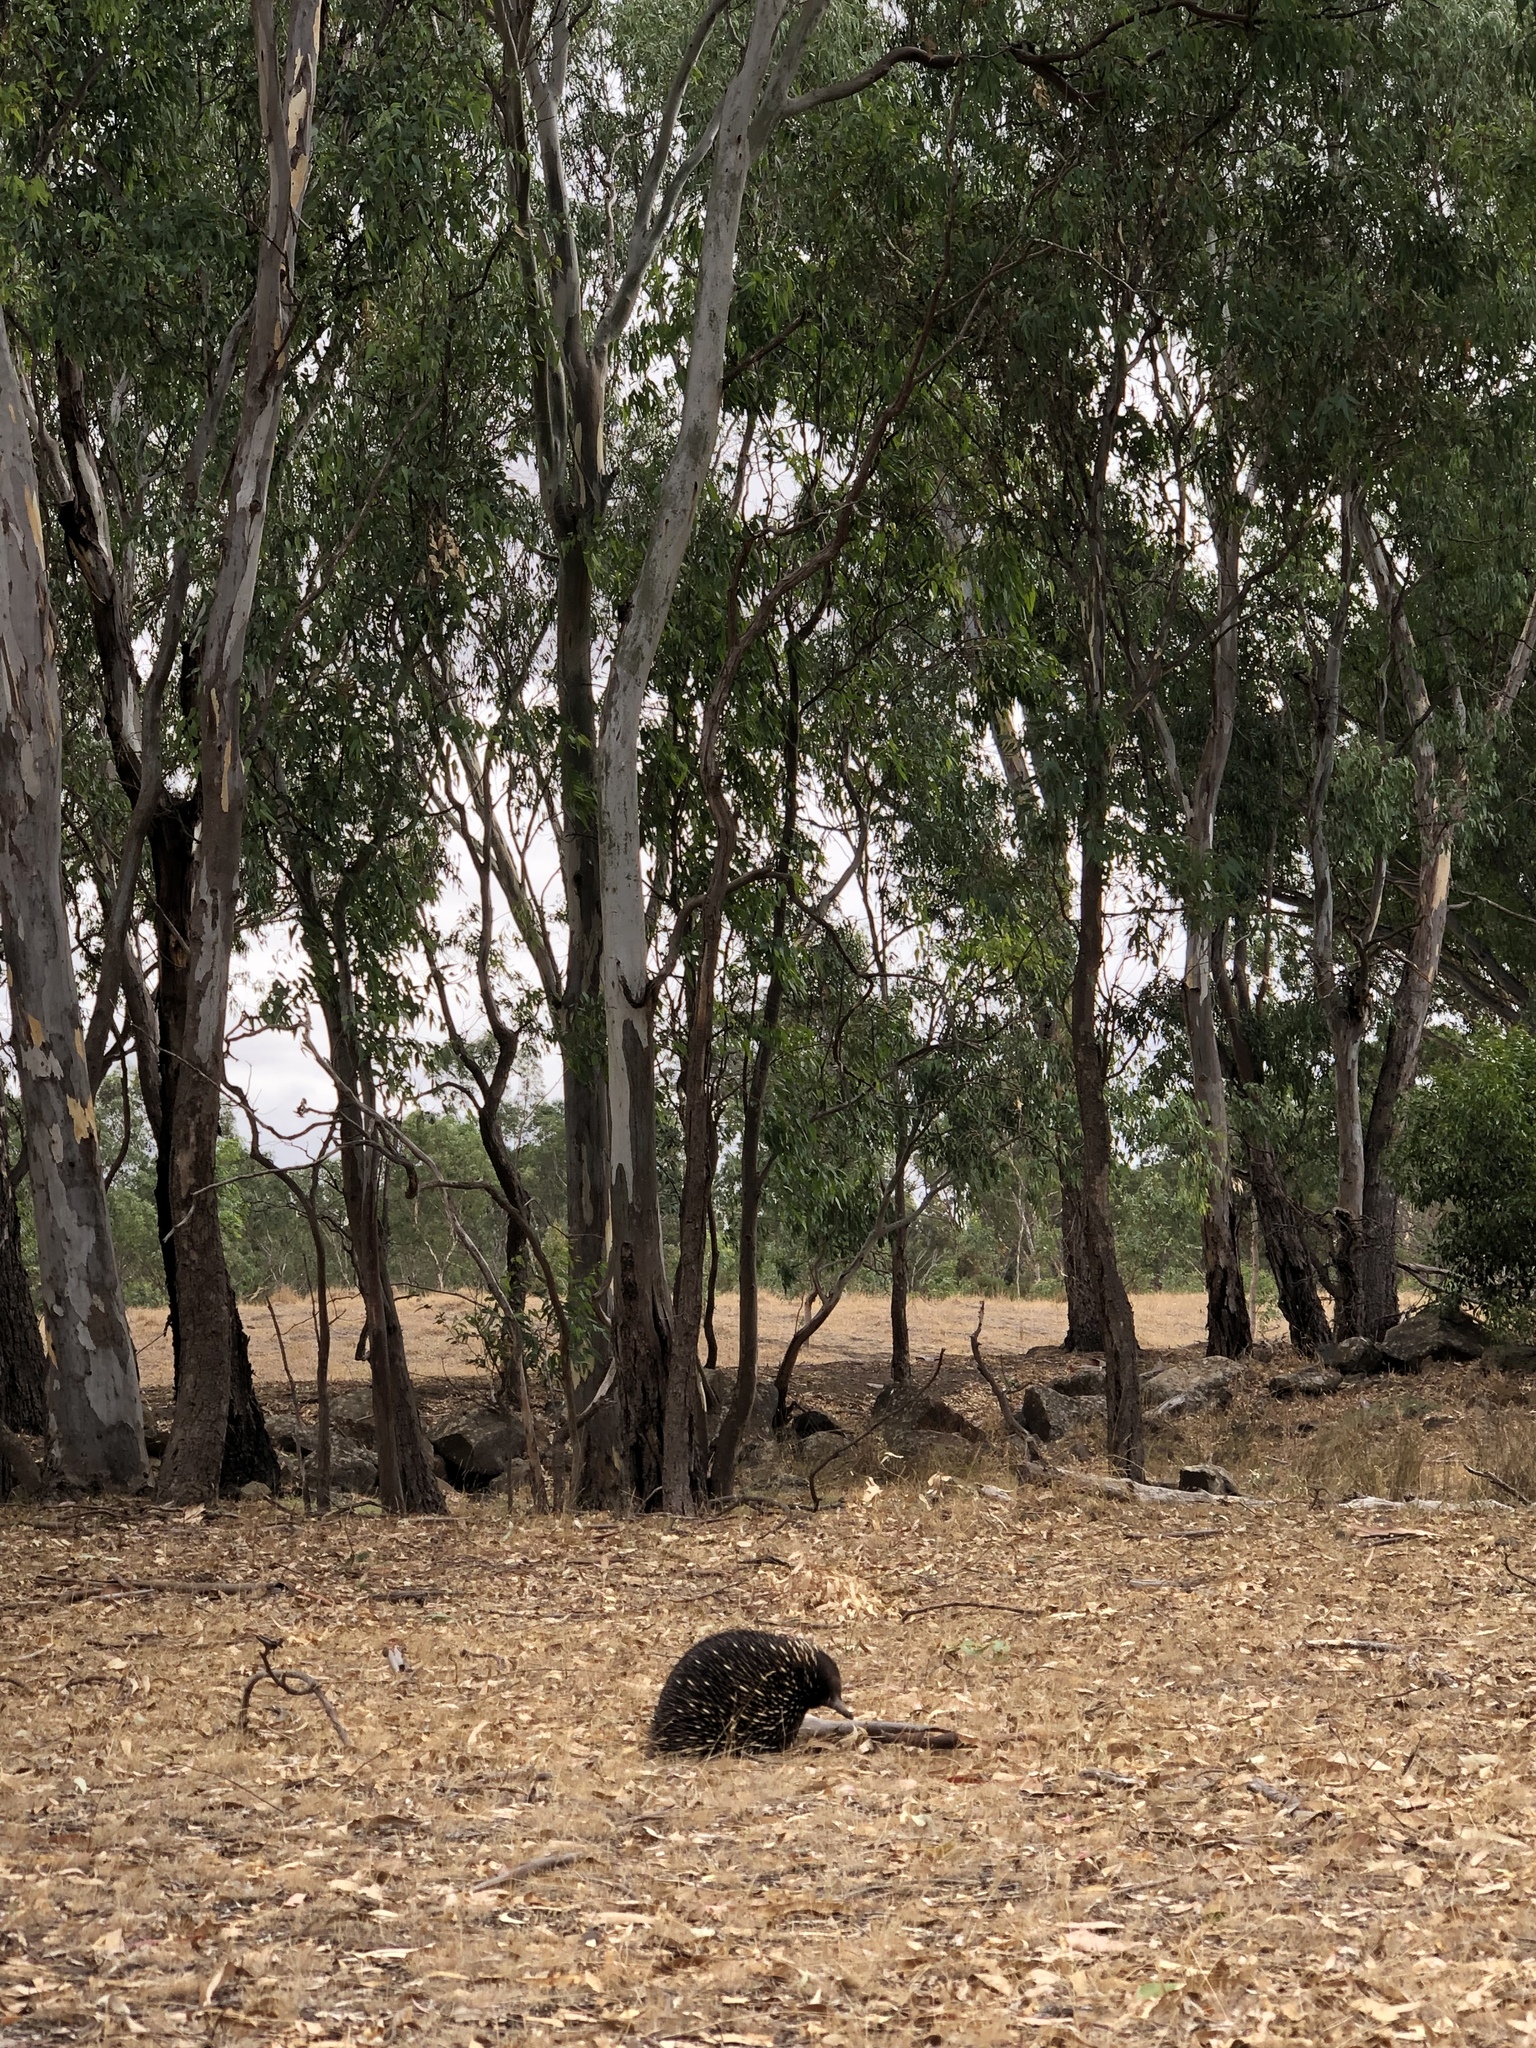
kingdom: Animalia
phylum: Chordata
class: Mammalia
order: Monotremata
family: Tachyglossidae
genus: Tachyglossus
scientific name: Tachyglossus aculeatus
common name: Short-beaked echidna
